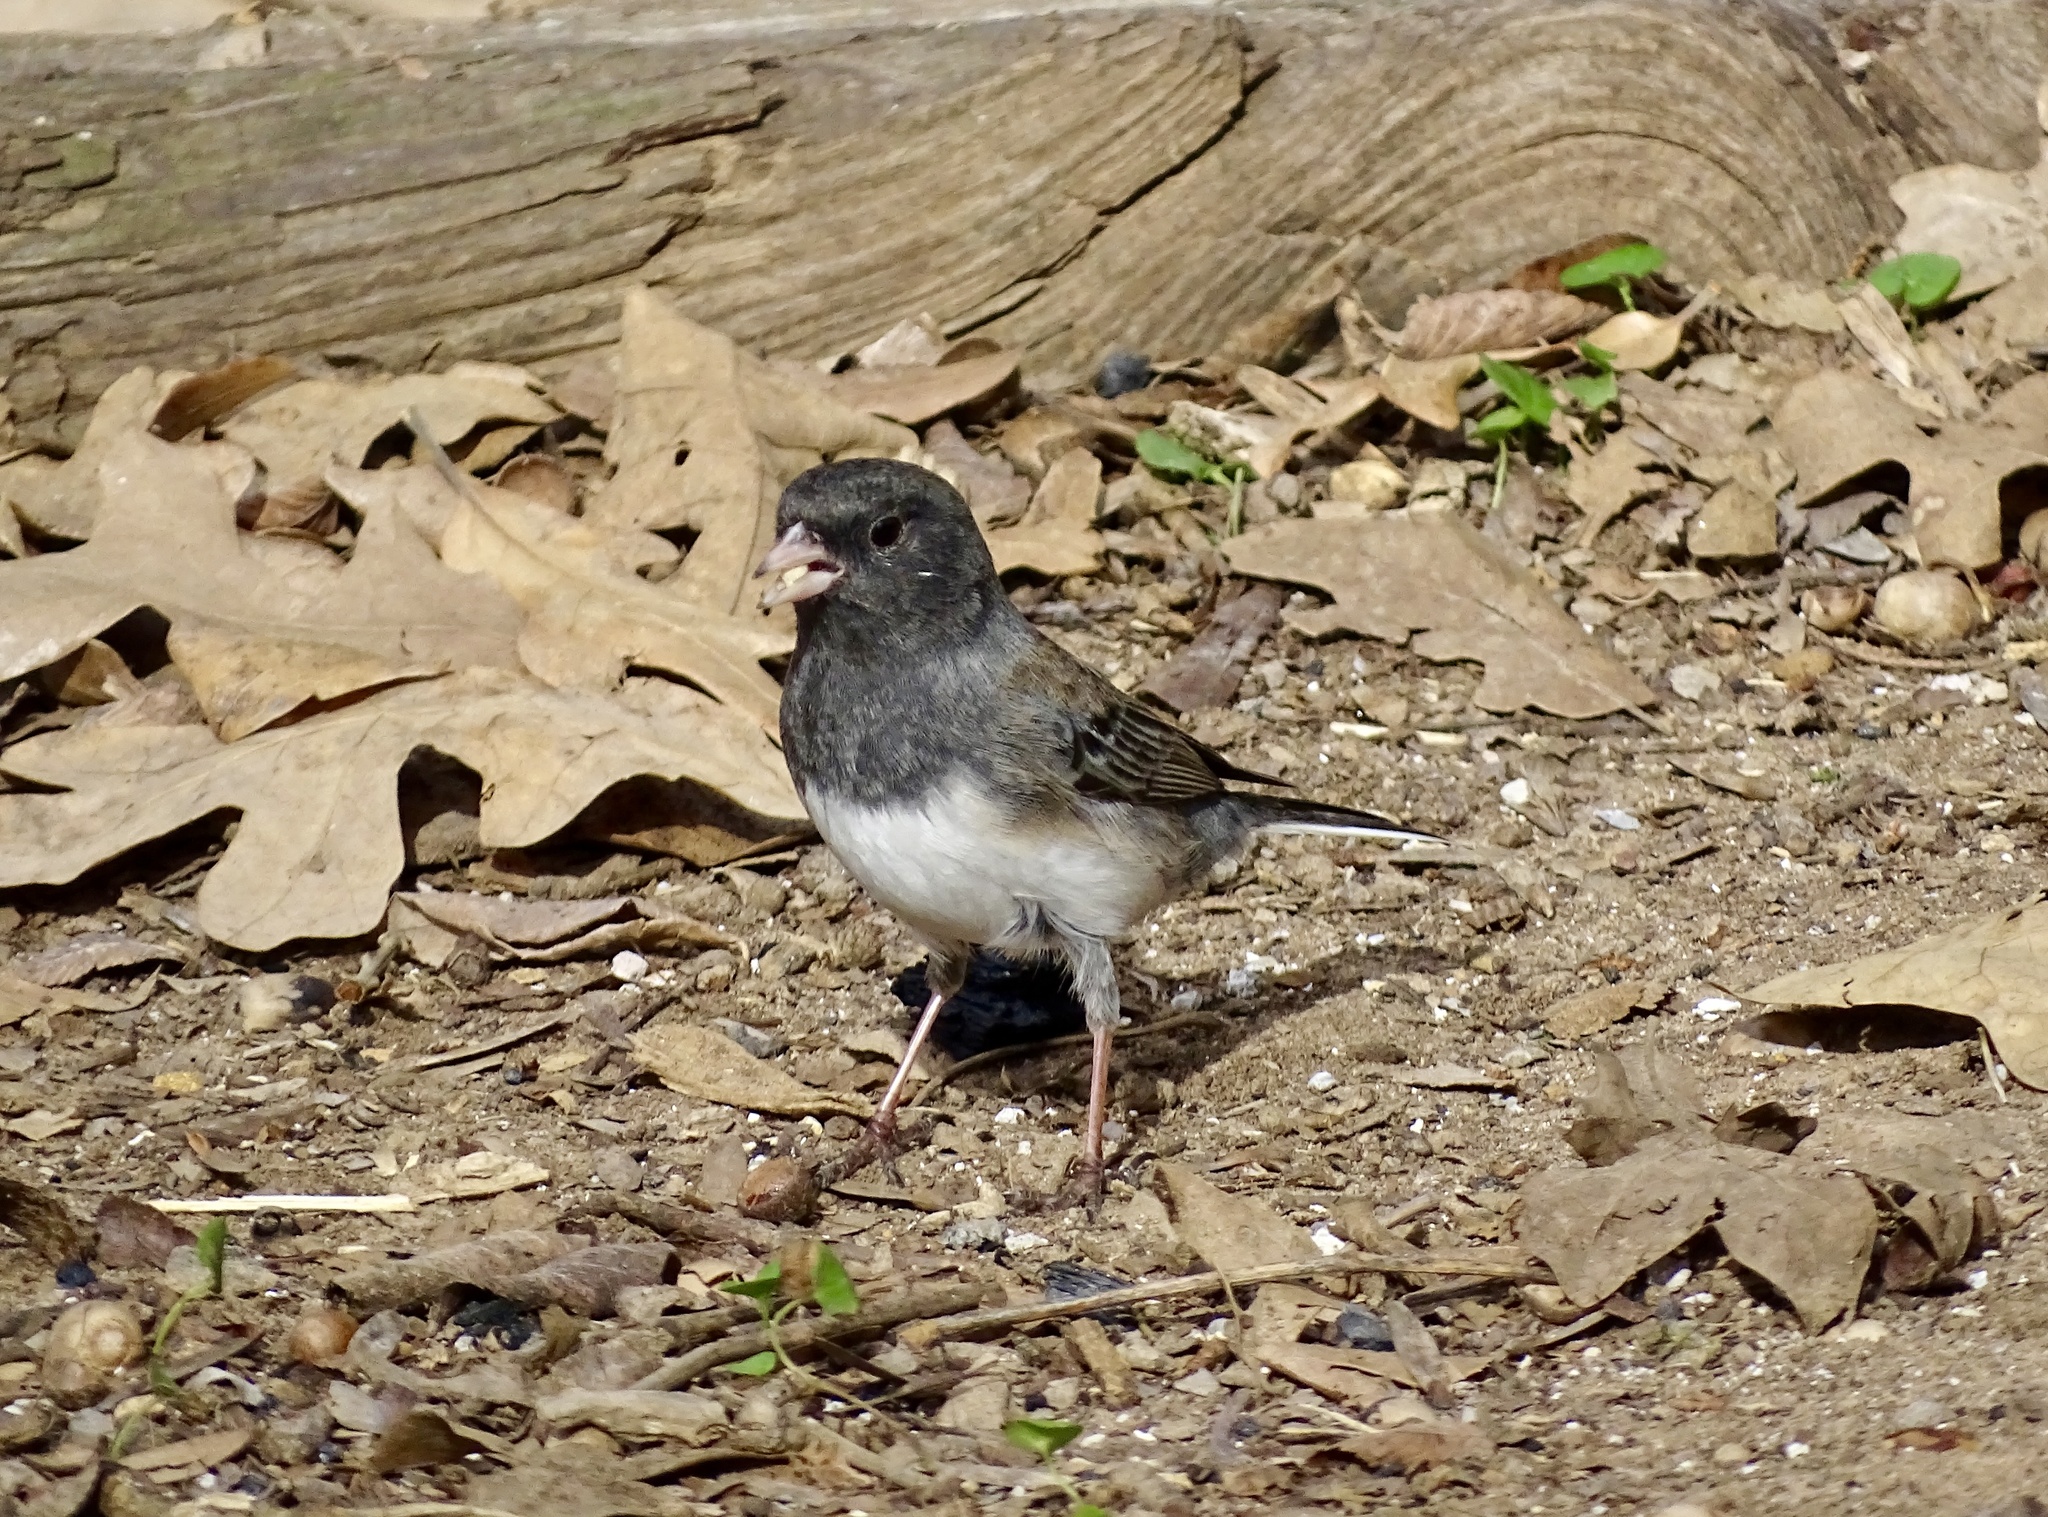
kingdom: Animalia
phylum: Chordata
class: Aves
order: Passeriformes
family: Passerellidae
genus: Junco
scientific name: Junco hyemalis
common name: Dark-eyed junco
